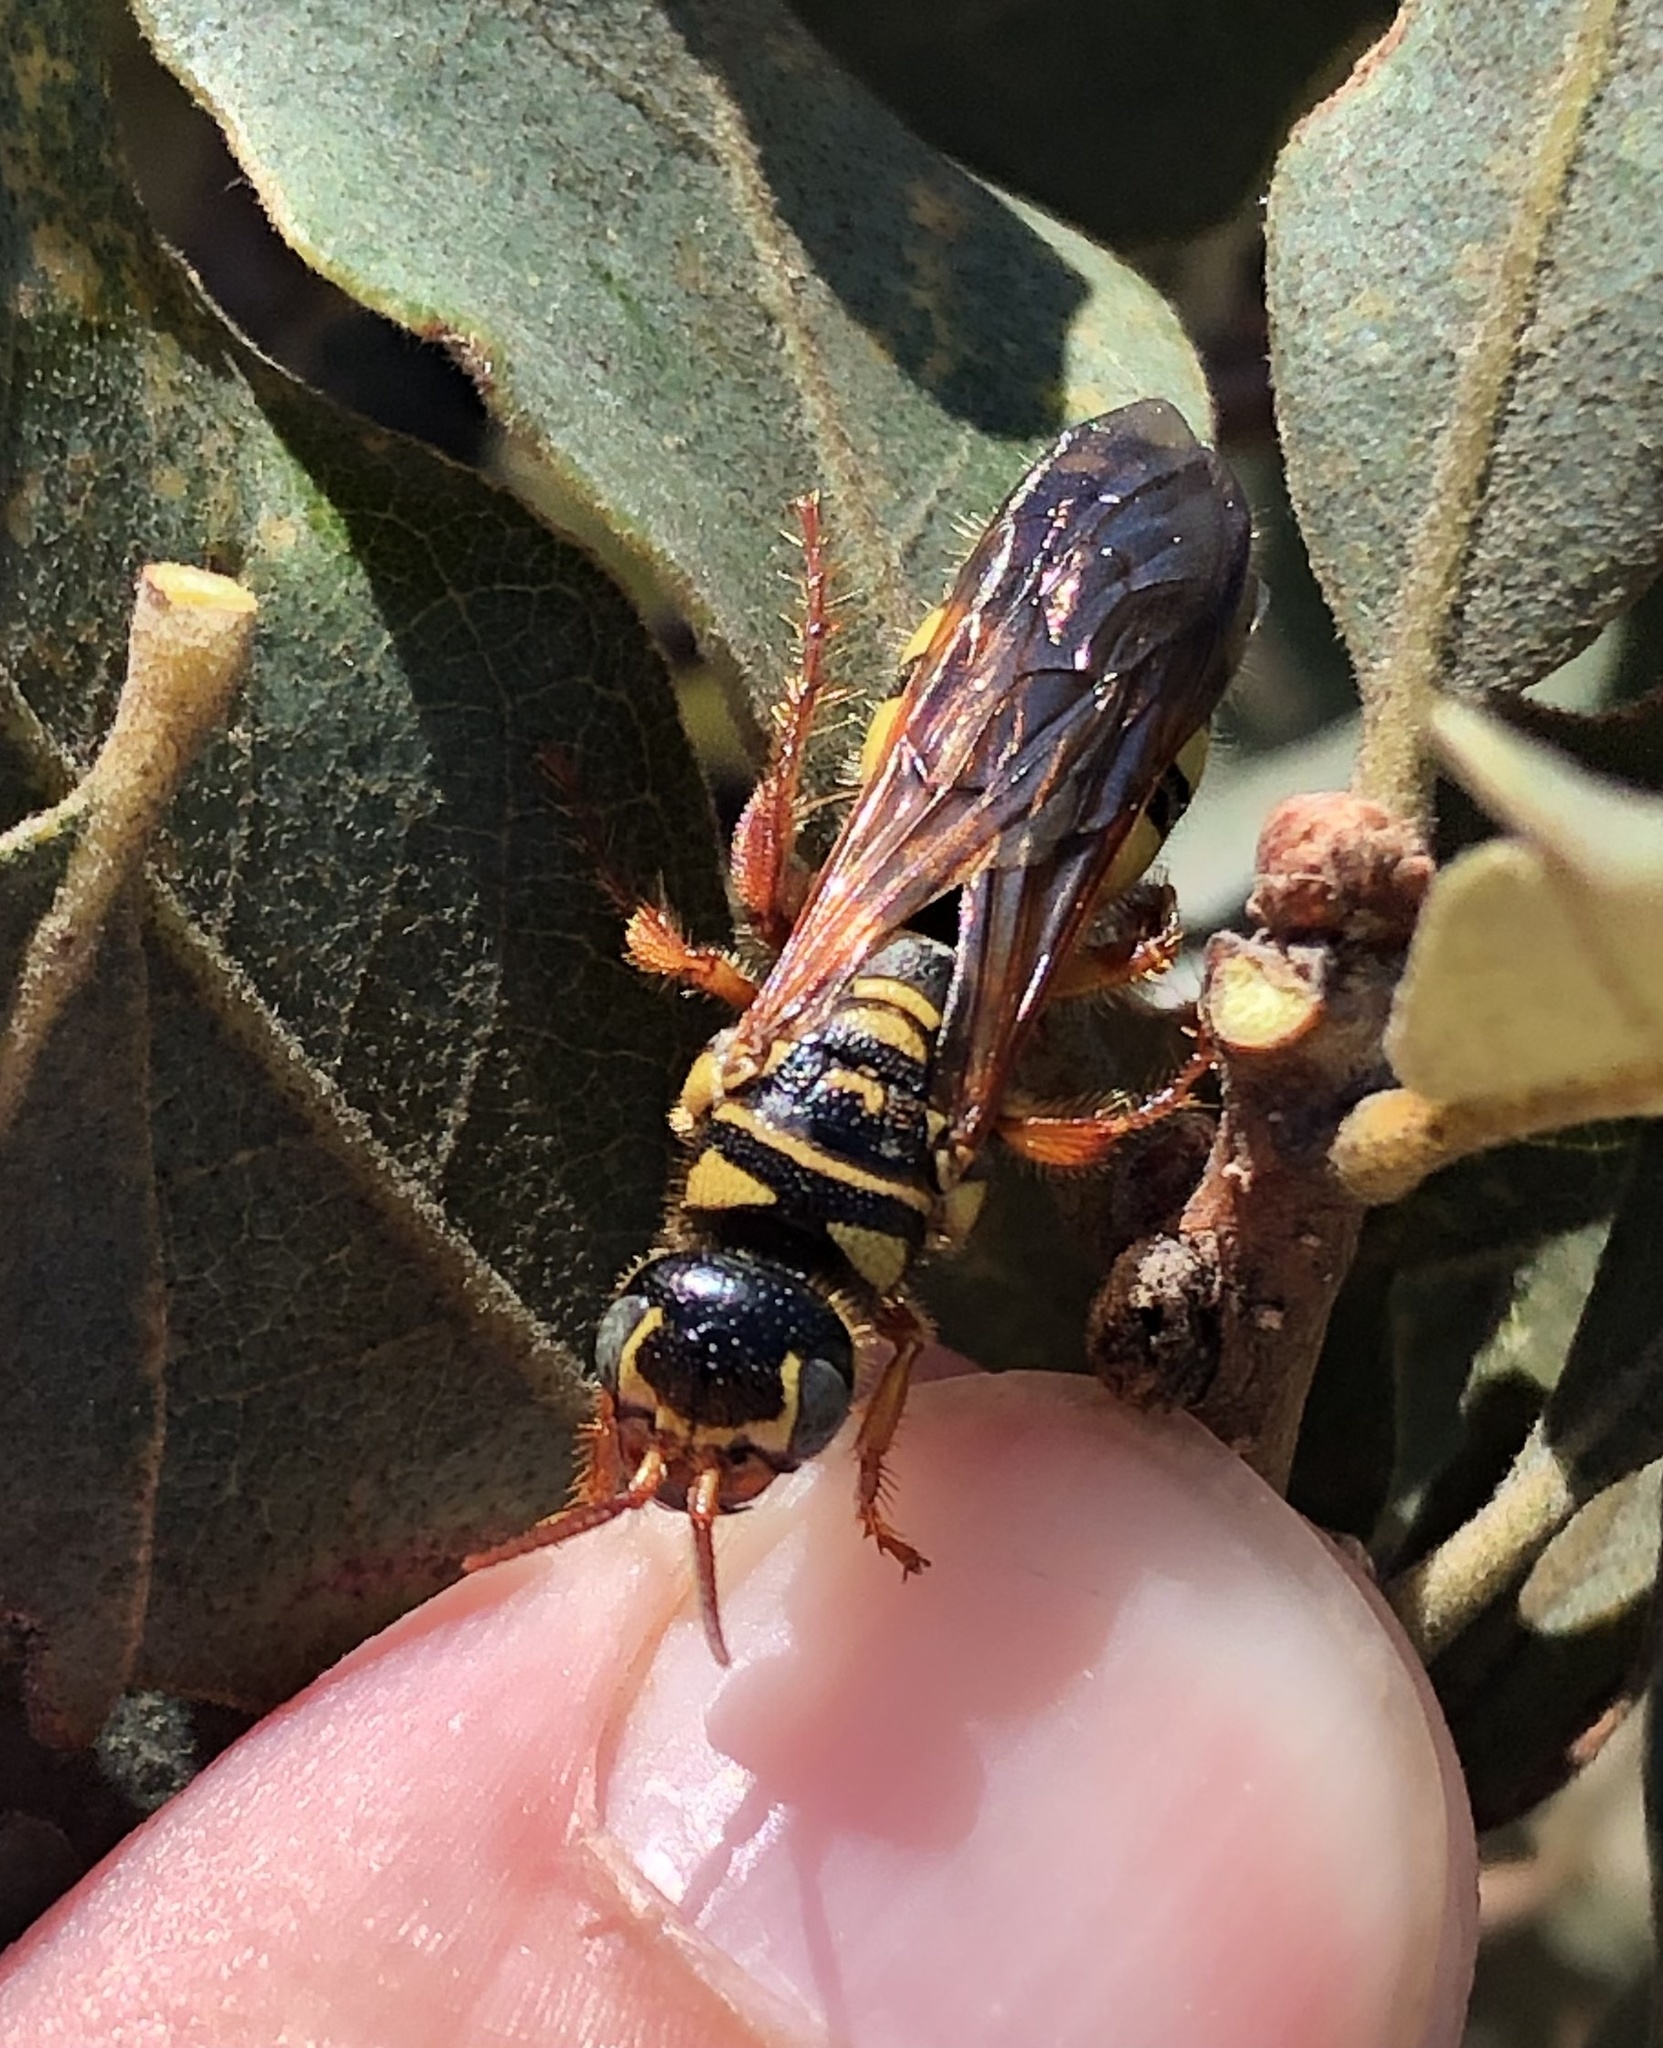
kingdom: Animalia
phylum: Arthropoda
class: Insecta
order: Hymenoptera
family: Tiphiidae
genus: Myzinum
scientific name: Myzinum quinquecinctum
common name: Five-banded thynnid wasp
